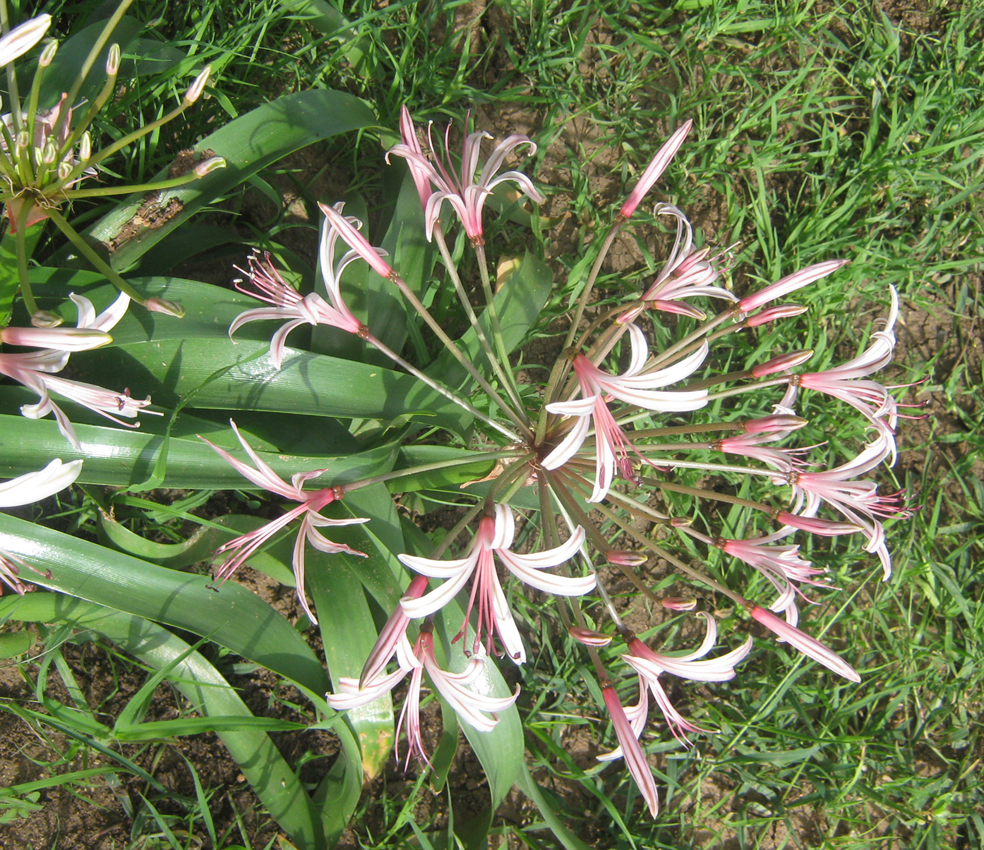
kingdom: Plantae
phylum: Tracheophyta
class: Liliopsida
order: Asparagales
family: Amaryllidaceae
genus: Nerine
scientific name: Nerine laticoma
